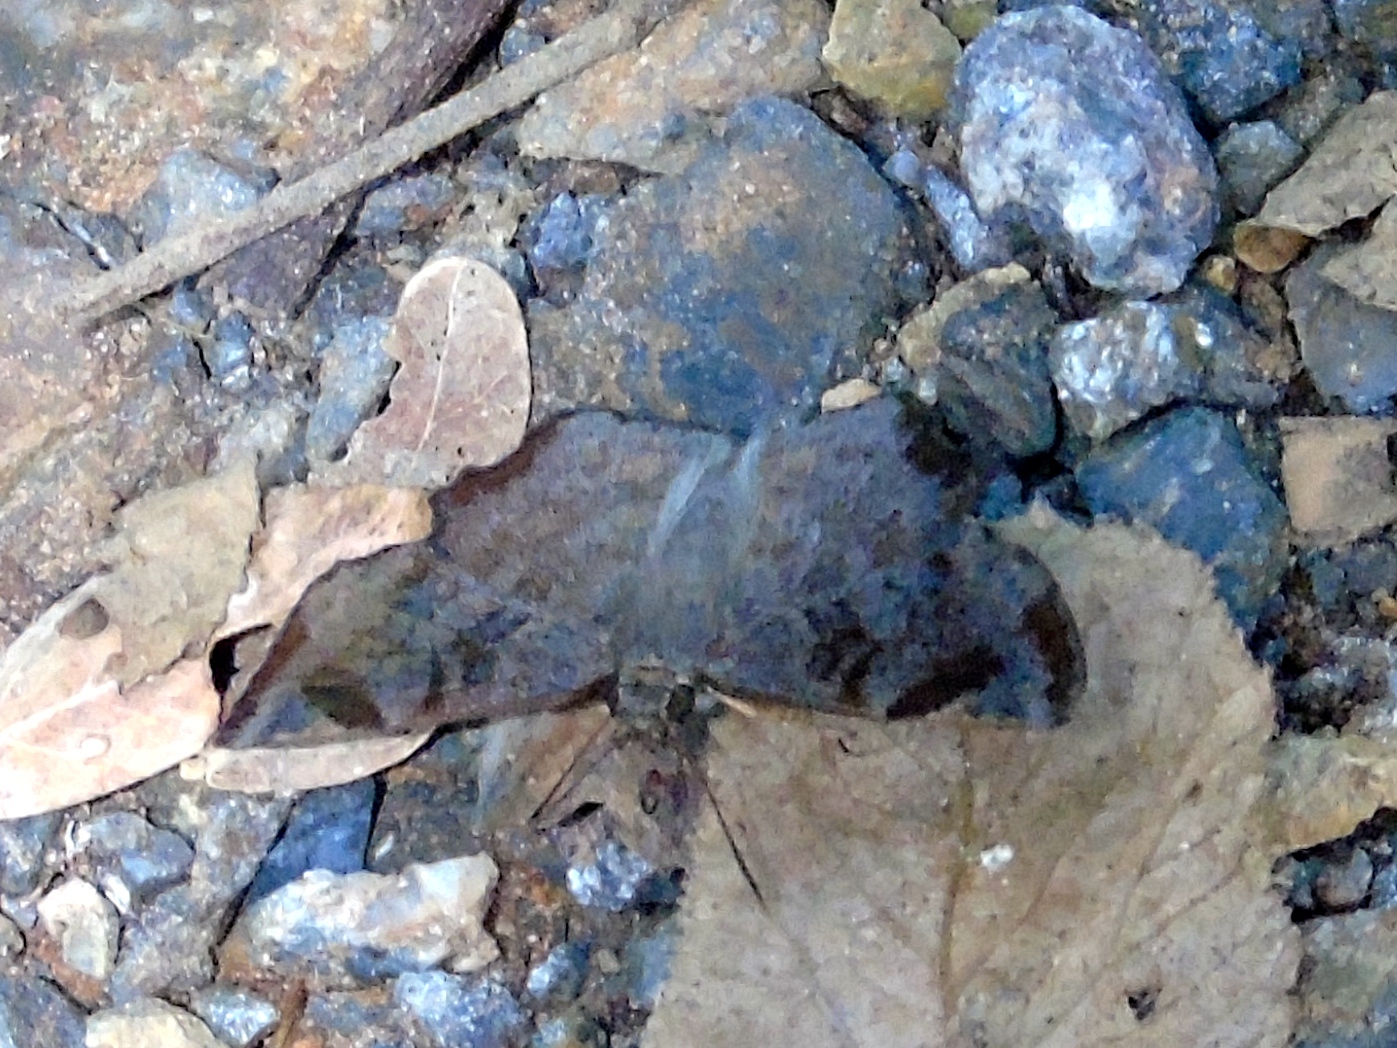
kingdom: Animalia
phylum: Arthropoda
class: Insecta
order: Lepidoptera
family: Hesperiidae
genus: Antigonus
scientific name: Antigonus erosus
